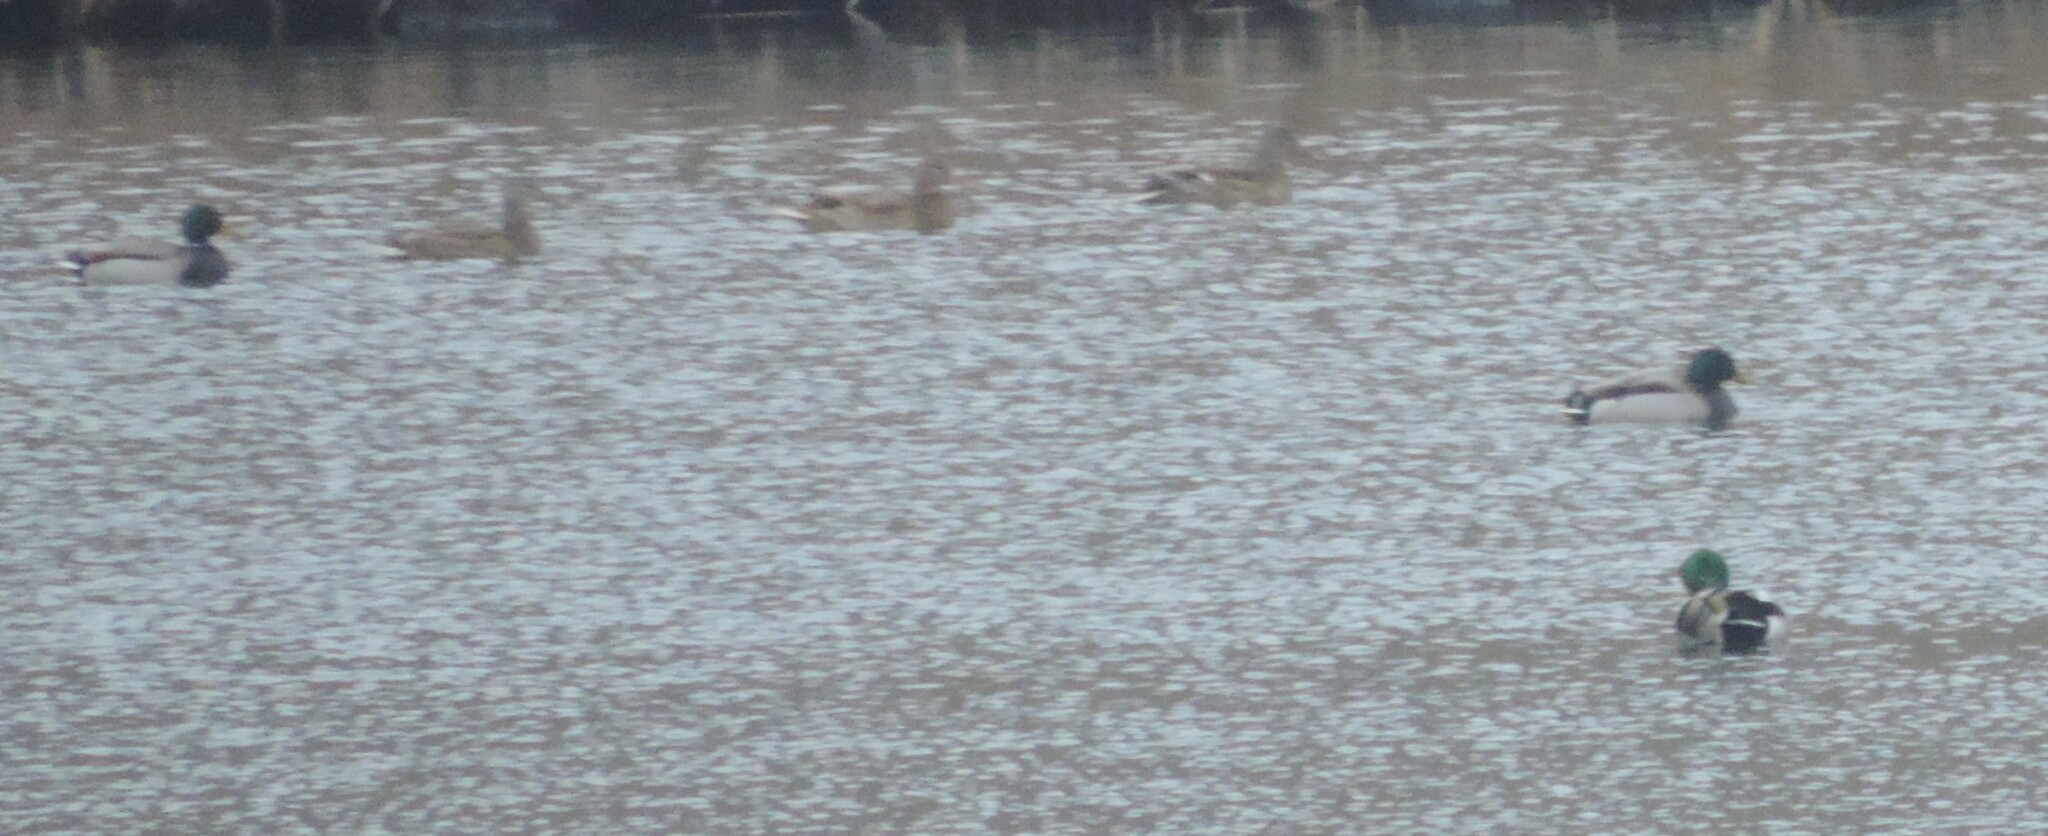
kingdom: Animalia
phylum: Chordata
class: Aves
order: Anseriformes
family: Anatidae
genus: Anas
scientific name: Anas platyrhynchos
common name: Mallard
